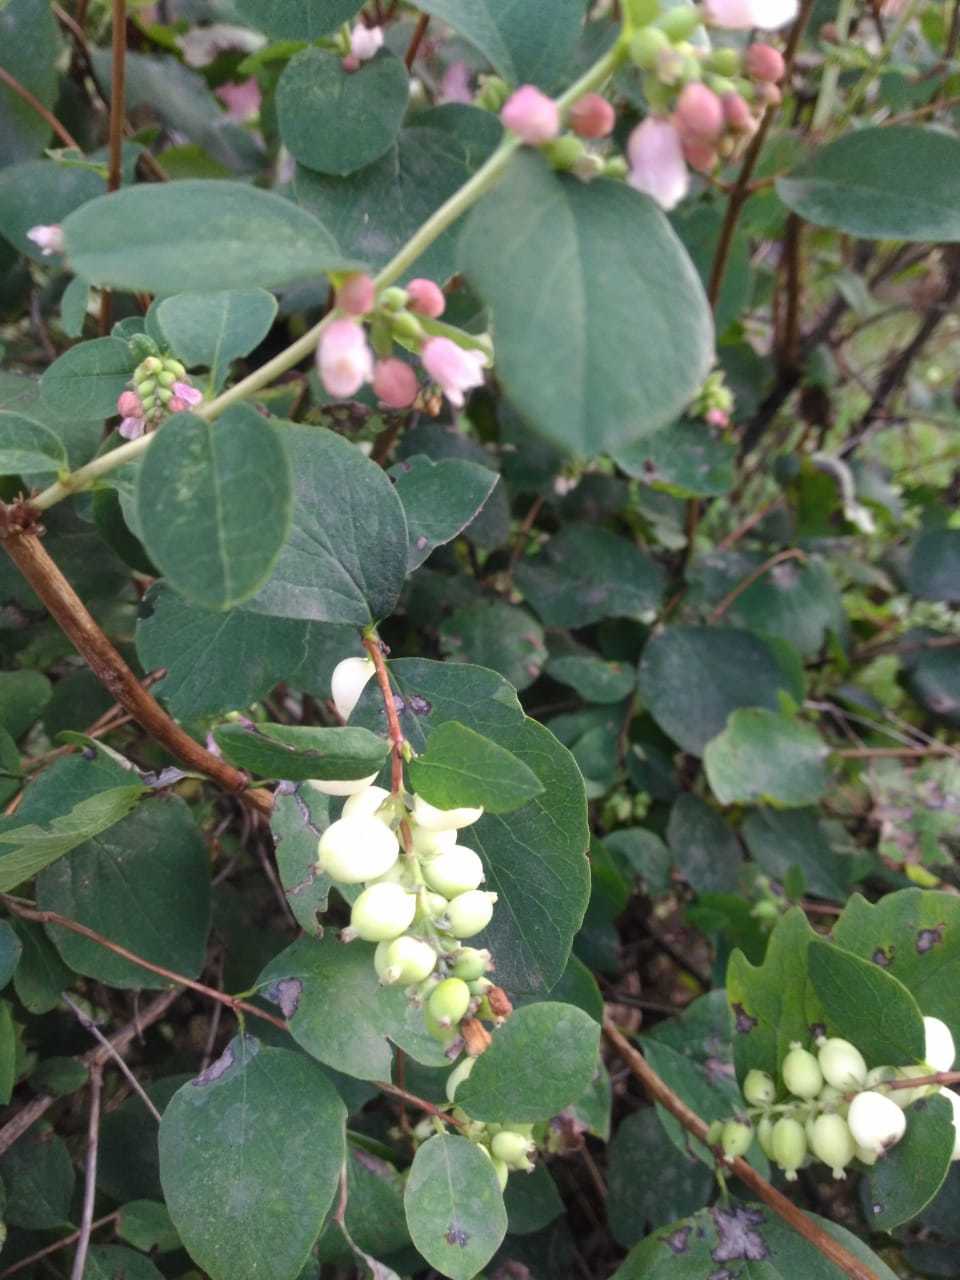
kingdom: Plantae
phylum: Tracheophyta
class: Magnoliopsida
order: Dipsacales
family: Caprifoliaceae
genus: Symphoricarpos
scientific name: Symphoricarpos albus
